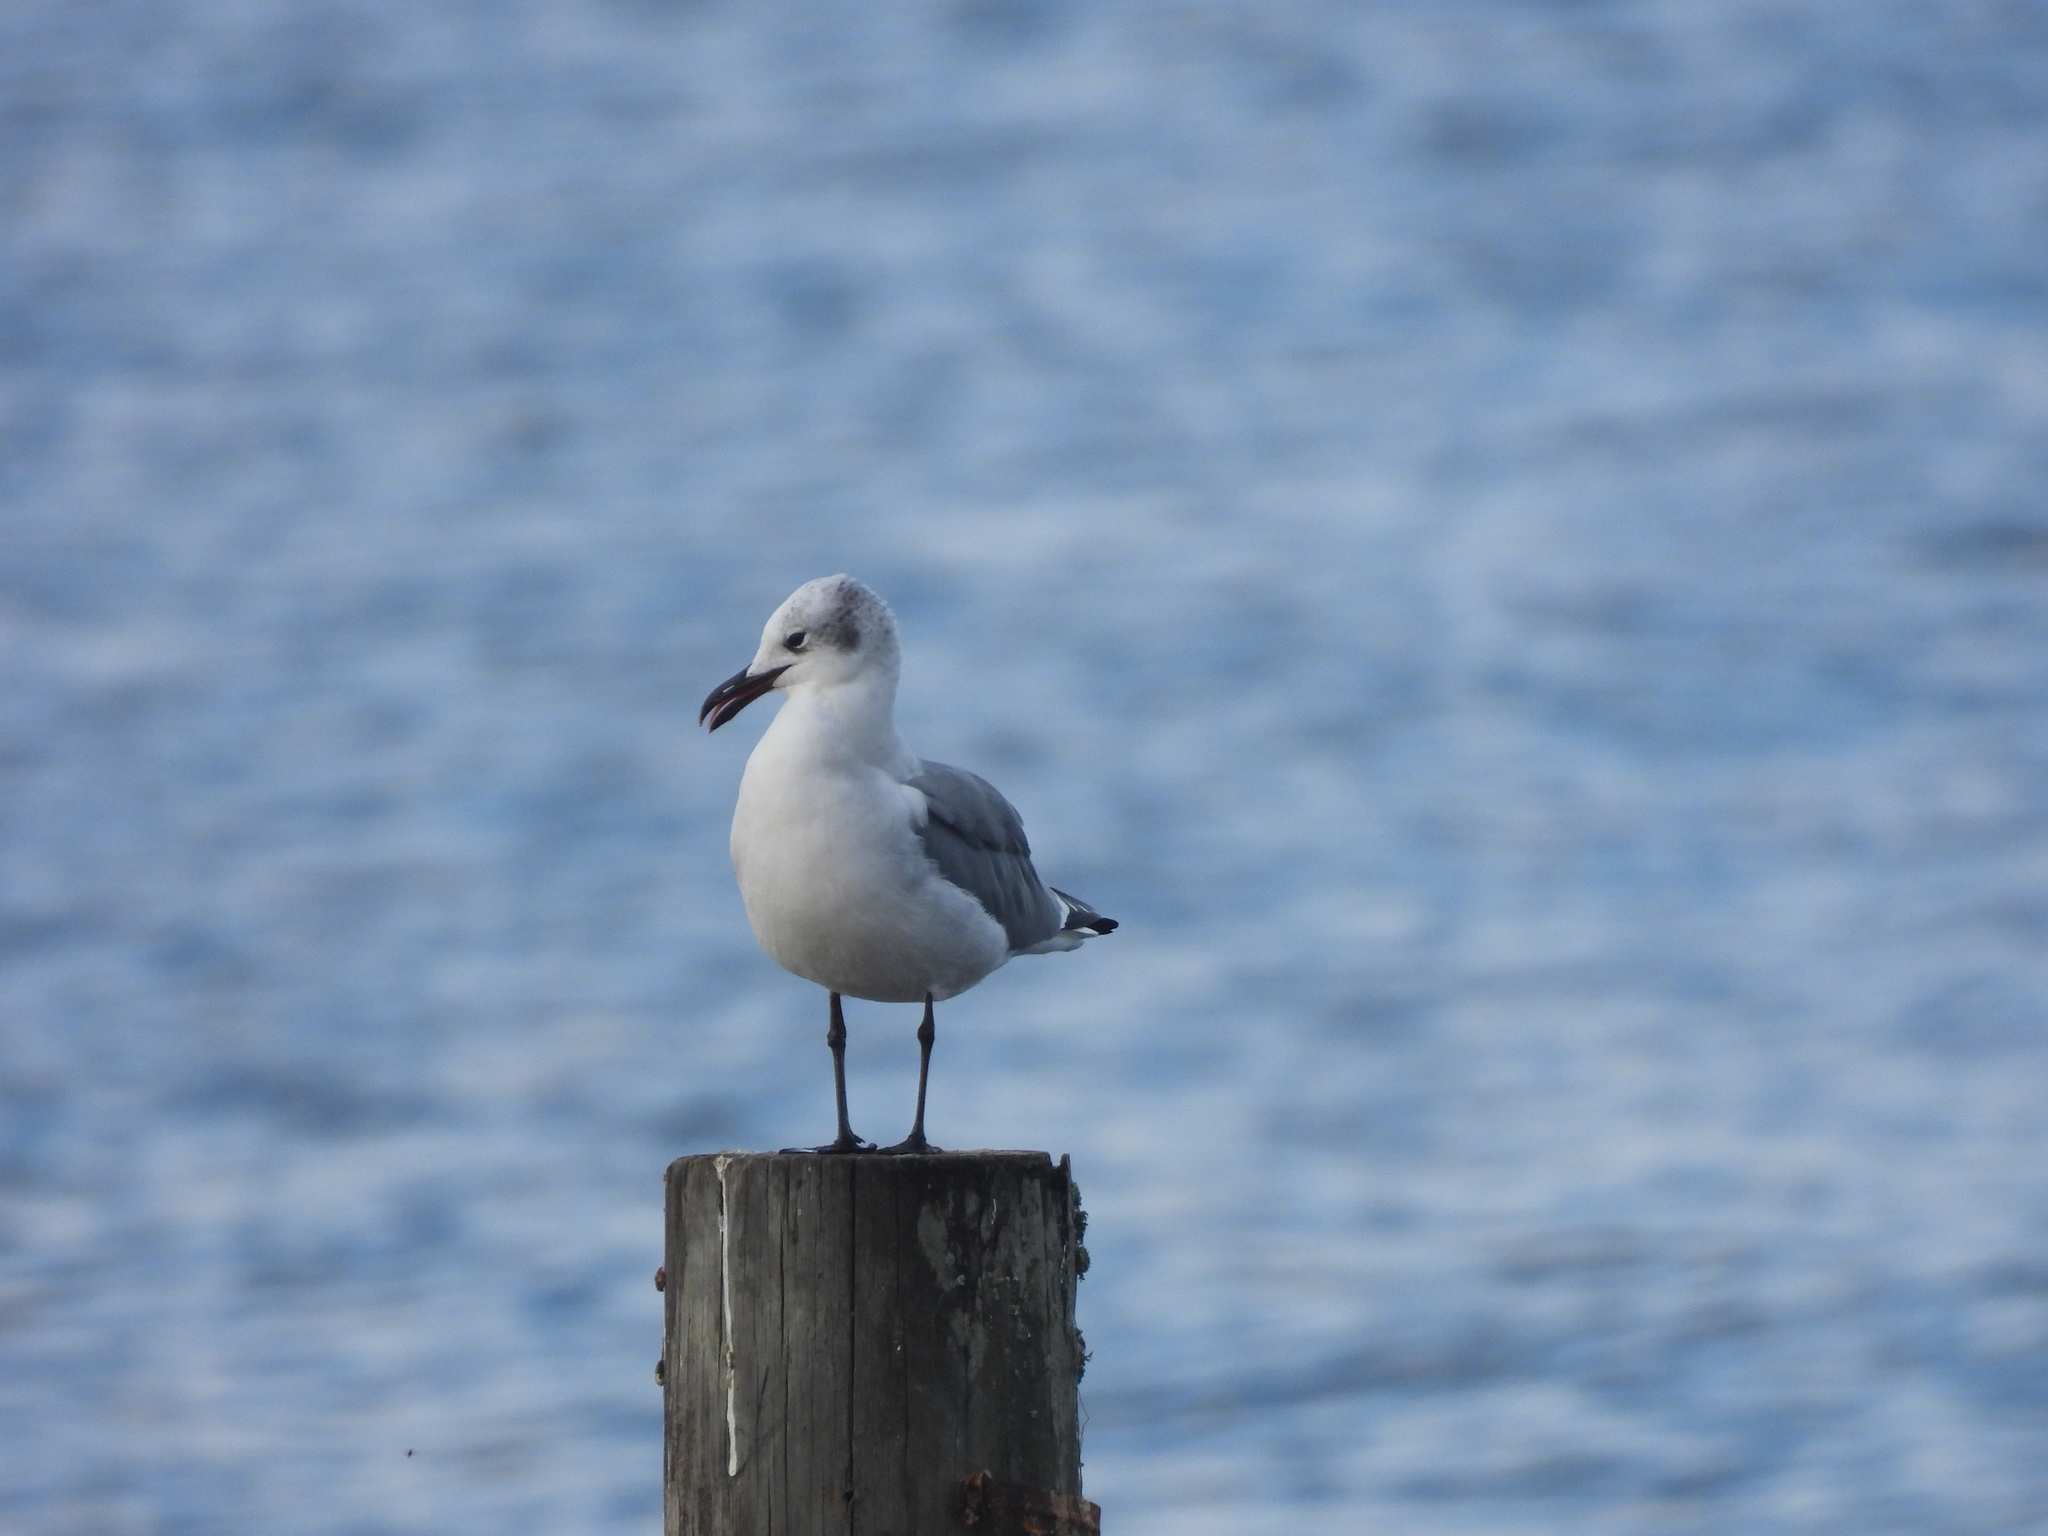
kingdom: Animalia
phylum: Chordata
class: Aves
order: Charadriiformes
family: Laridae
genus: Leucophaeus
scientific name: Leucophaeus atricilla
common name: Laughing gull
